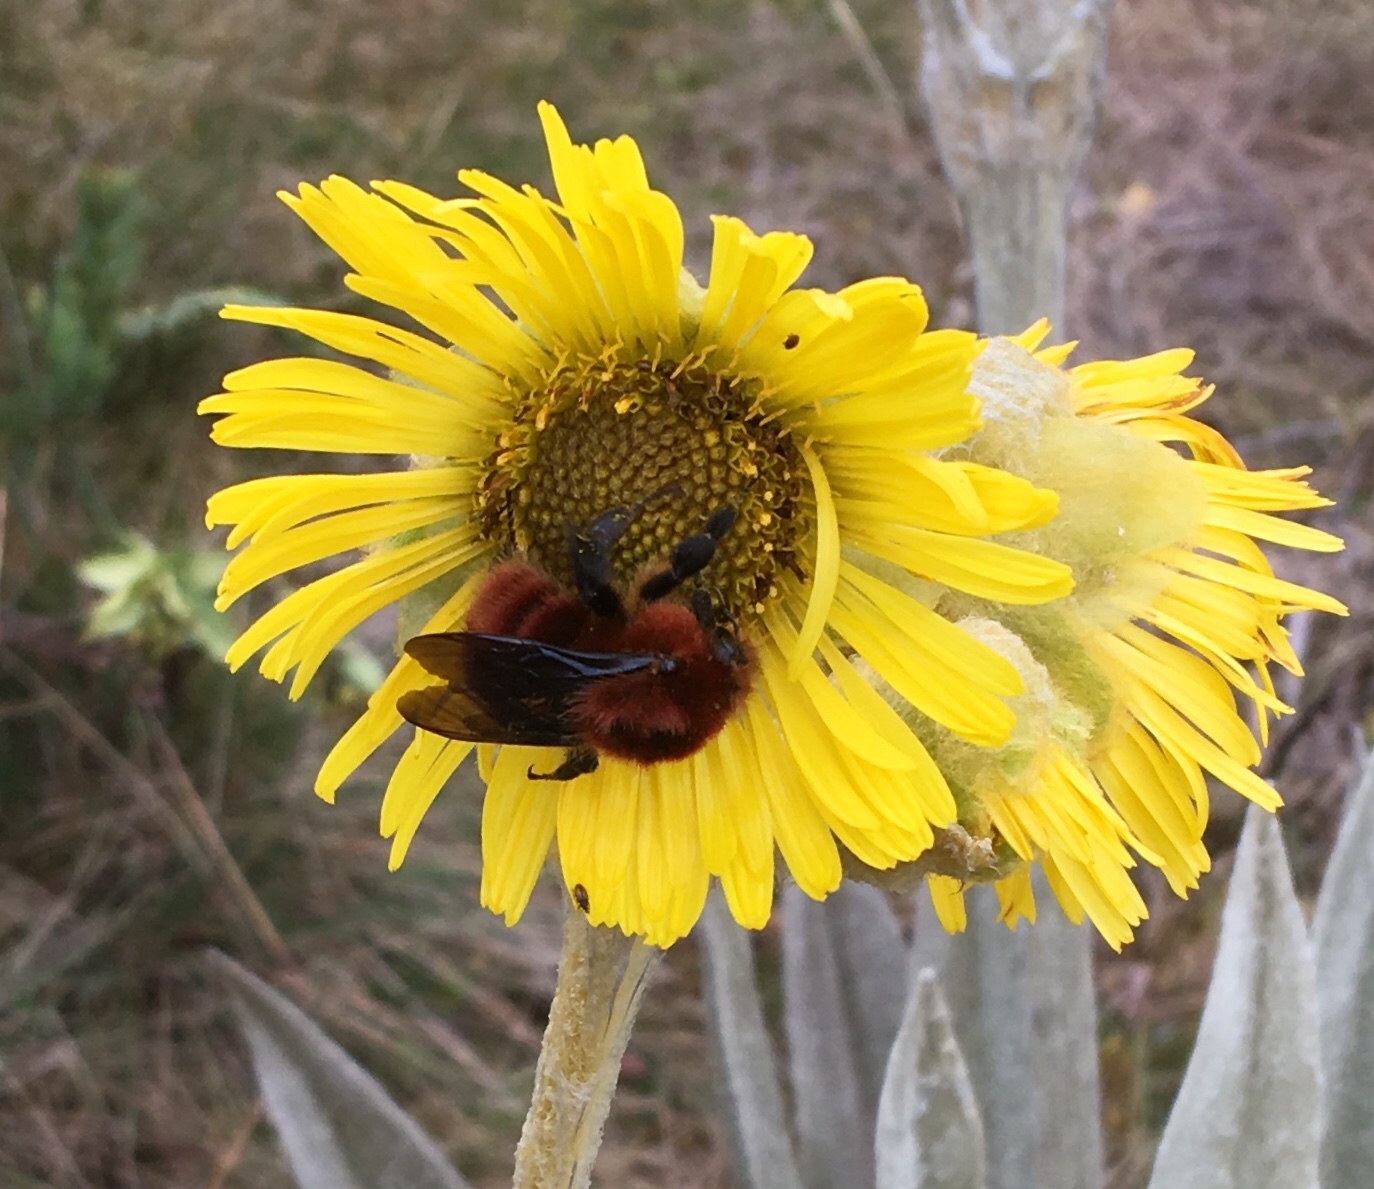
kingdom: Animalia
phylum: Arthropoda
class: Insecta
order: Hymenoptera
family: Apidae
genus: Bombus
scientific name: Bombus rubicundus
